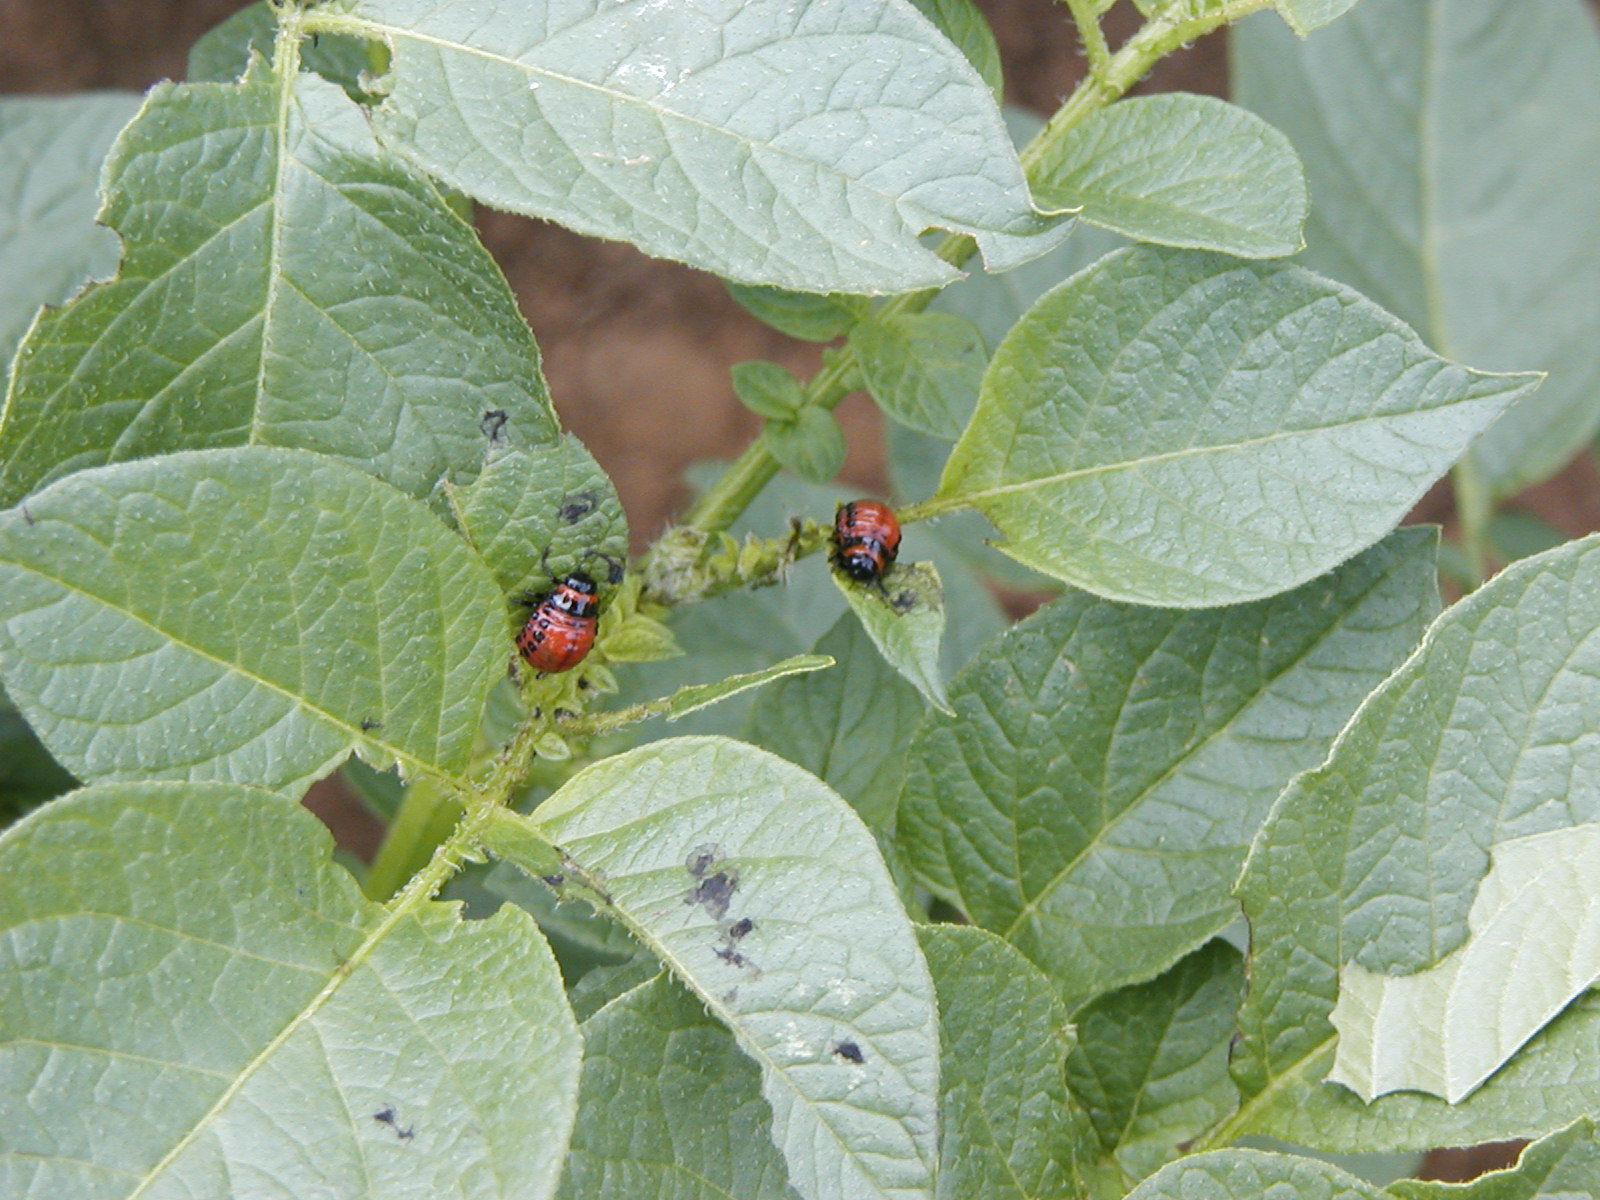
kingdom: Animalia
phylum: Arthropoda
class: Insecta
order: Coleoptera
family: Chrysomelidae
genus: Leptinotarsa
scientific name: Leptinotarsa decemlineata
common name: Colorado potato beetle
